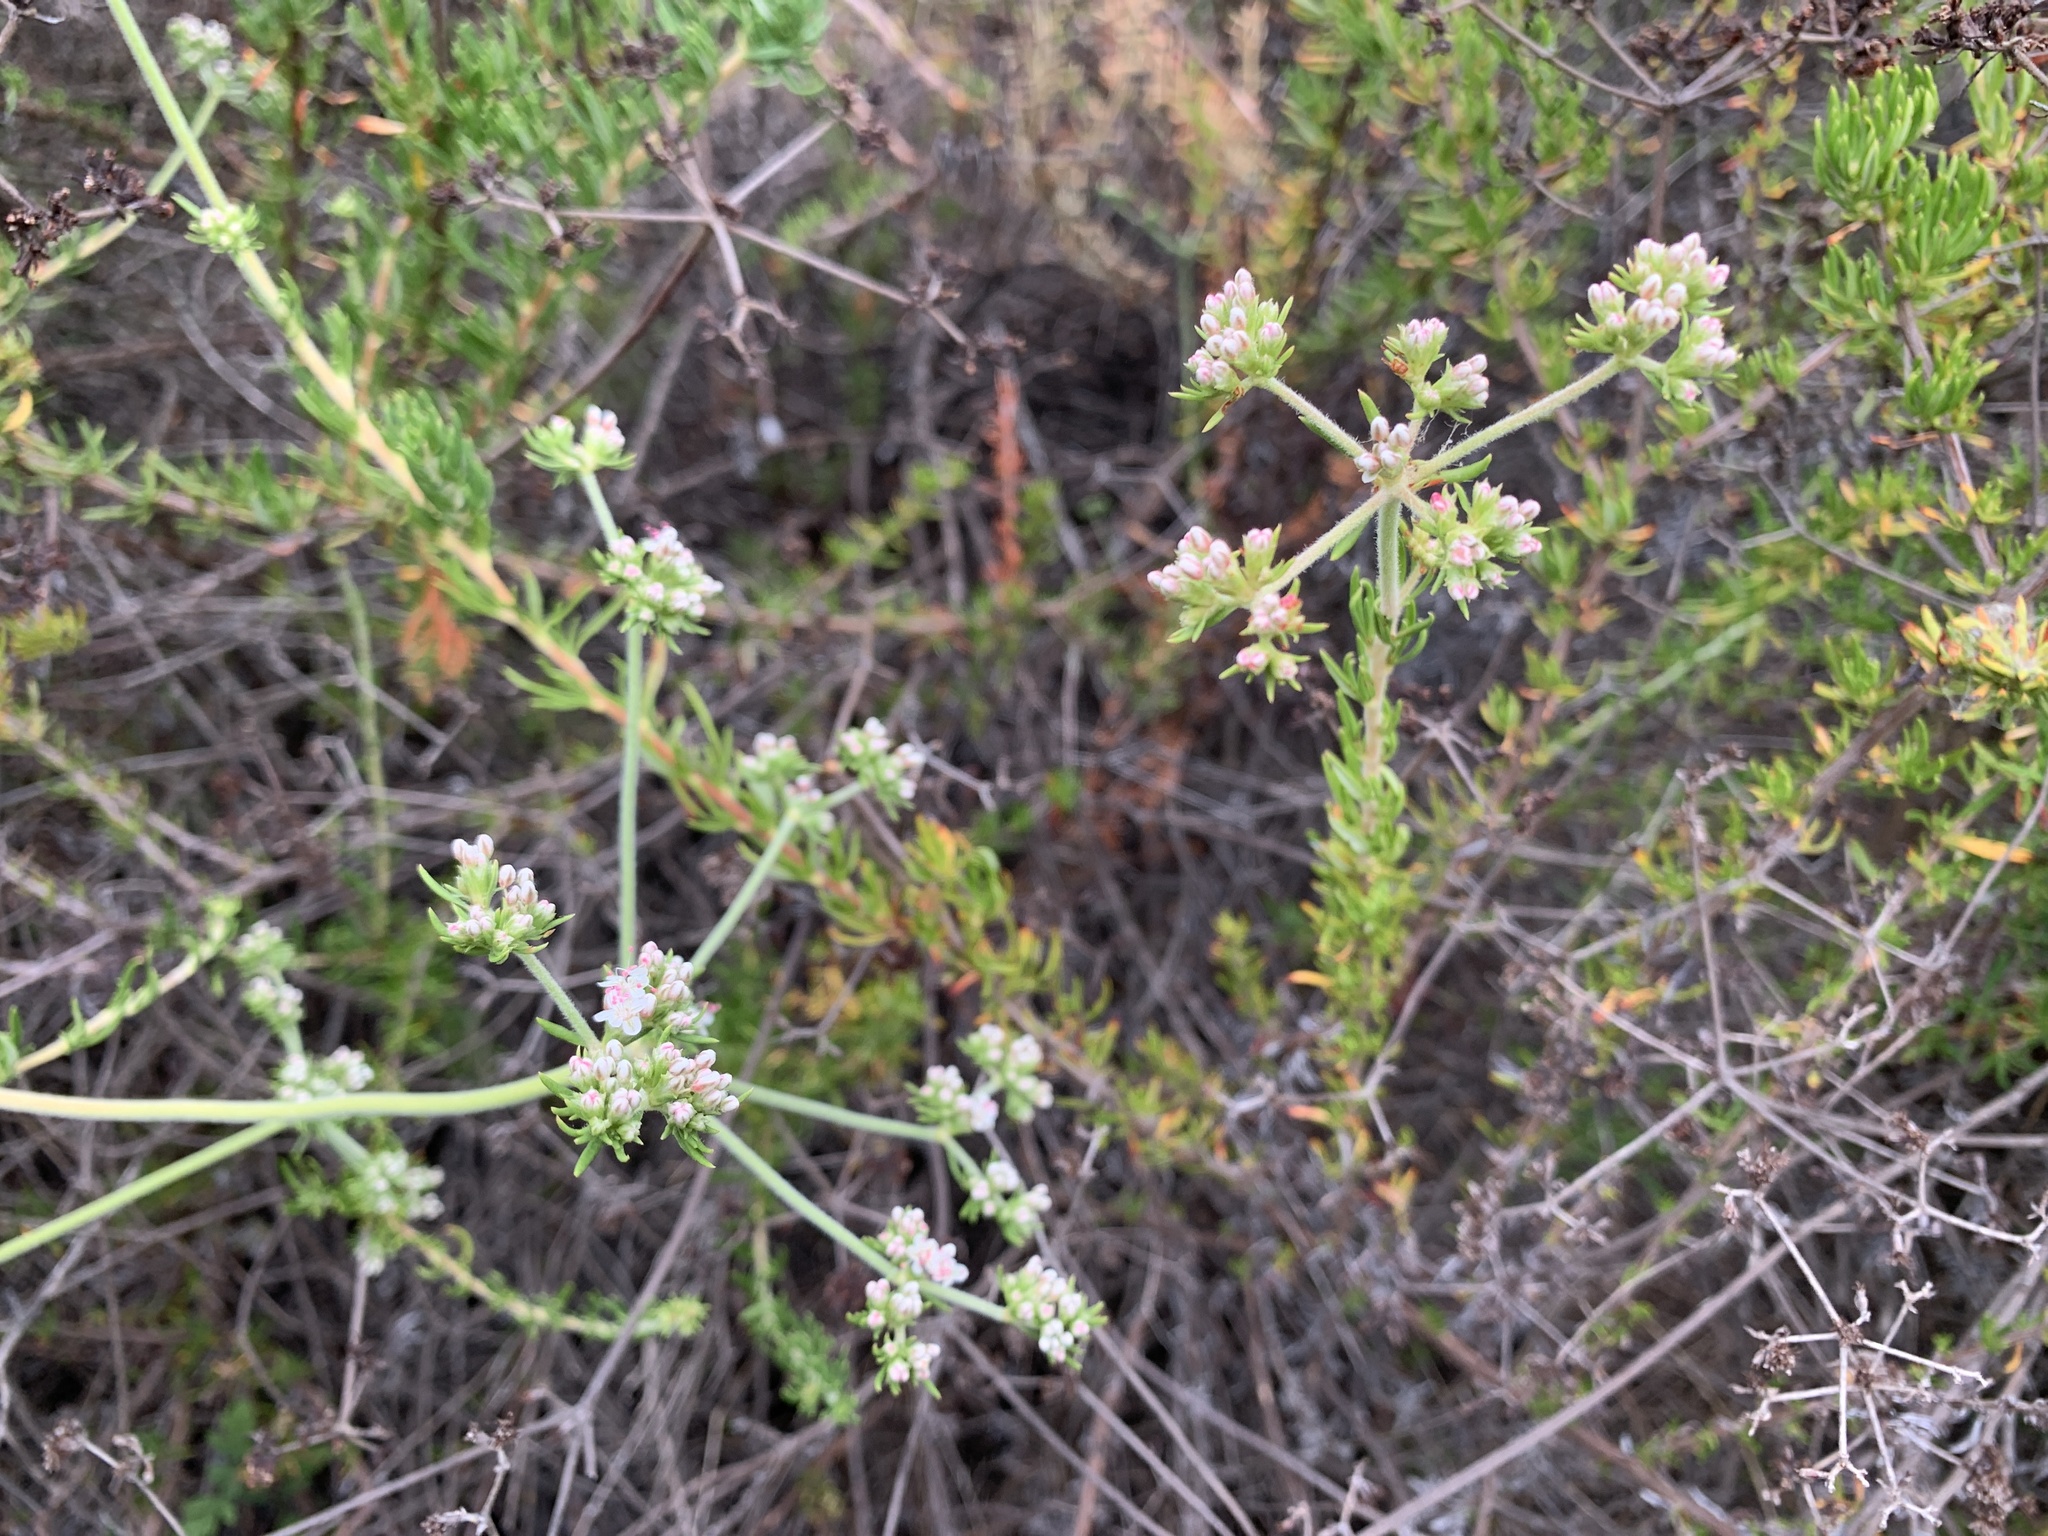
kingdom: Plantae
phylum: Tracheophyta
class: Magnoliopsida
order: Caryophyllales
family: Polygonaceae
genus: Eriogonum
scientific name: Eriogonum fasciculatum
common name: California wild buckwheat
